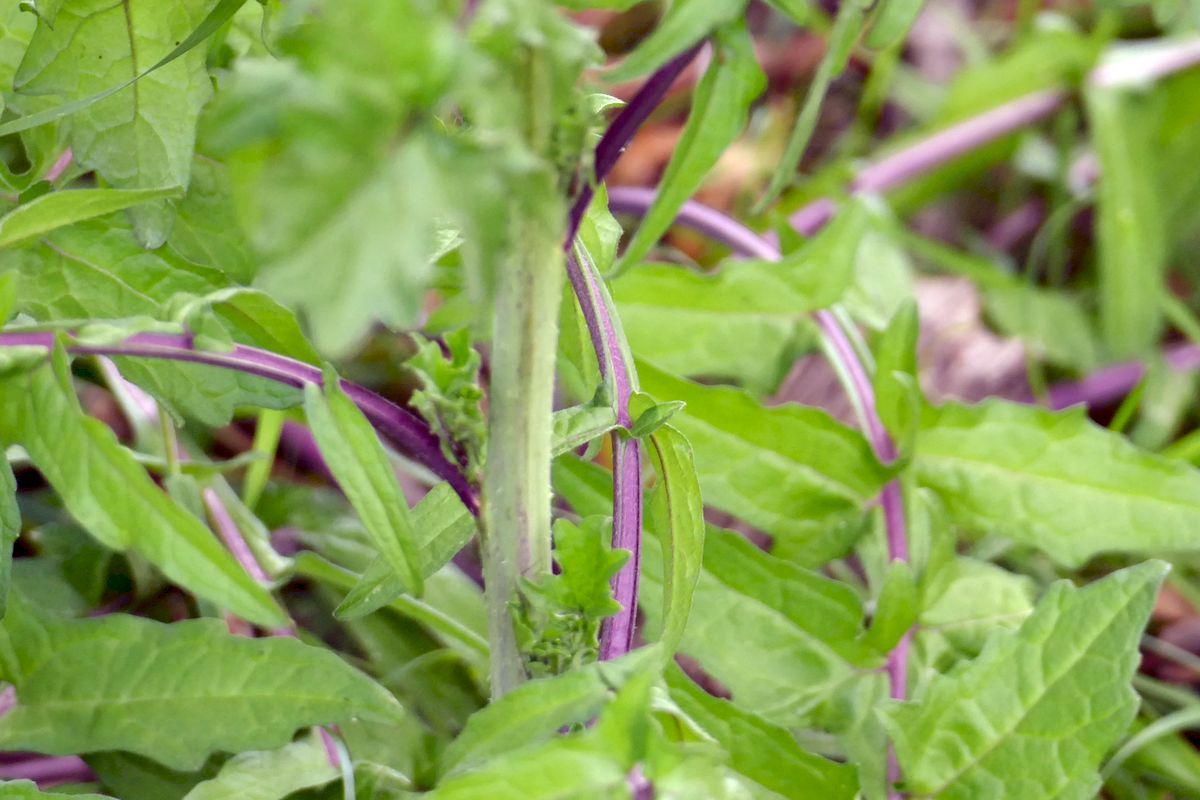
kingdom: Plantae
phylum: Tracheophyta
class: Magnoliopsida
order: Brassicales
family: Brassicaceae
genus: Sisymbrium
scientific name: Sisymbrium officinale
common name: Hedge mustard
